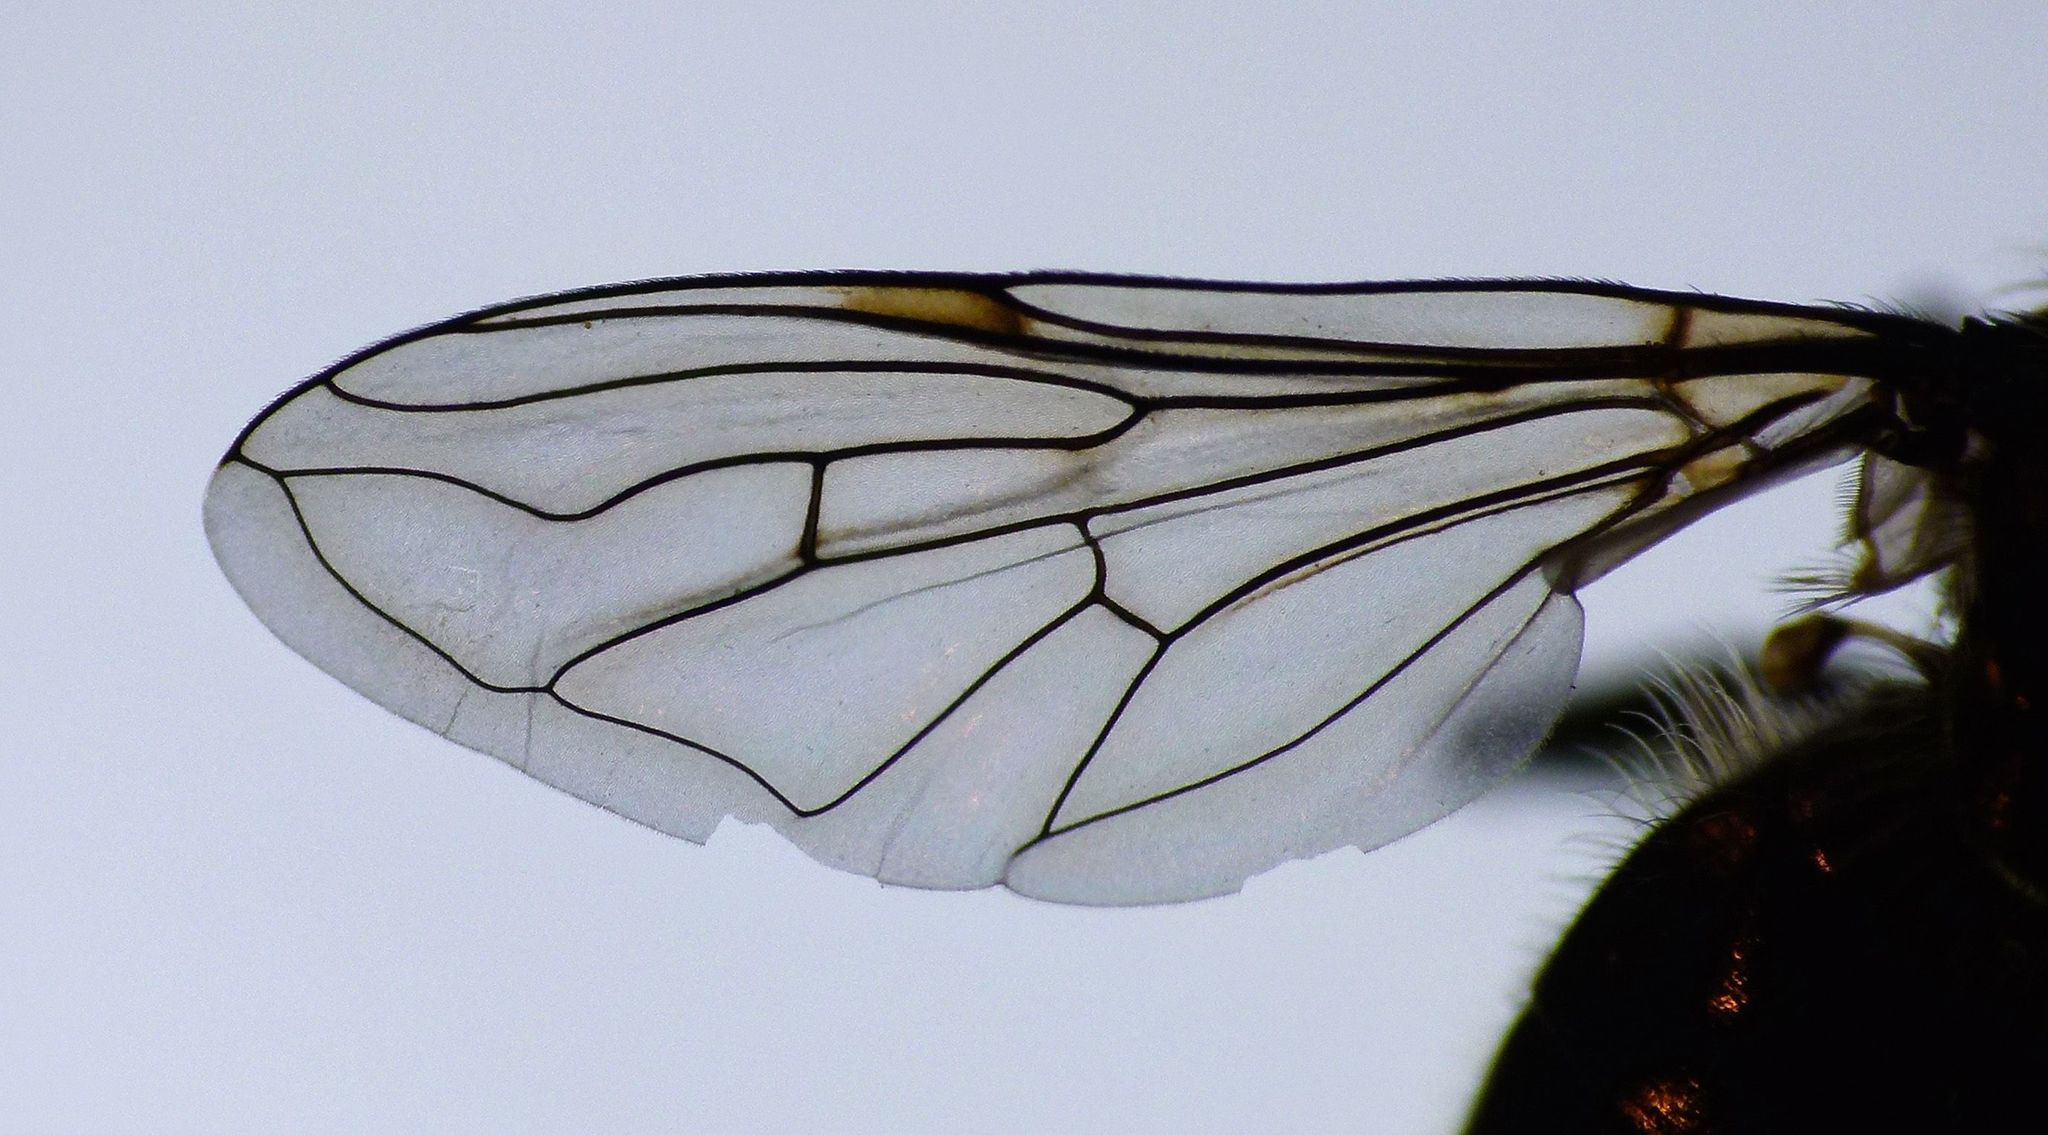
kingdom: Animalia
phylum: Arthropoda
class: Insecta
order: Diptera
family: Syrphidae
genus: Helophilus
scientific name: Helophilus hectori
